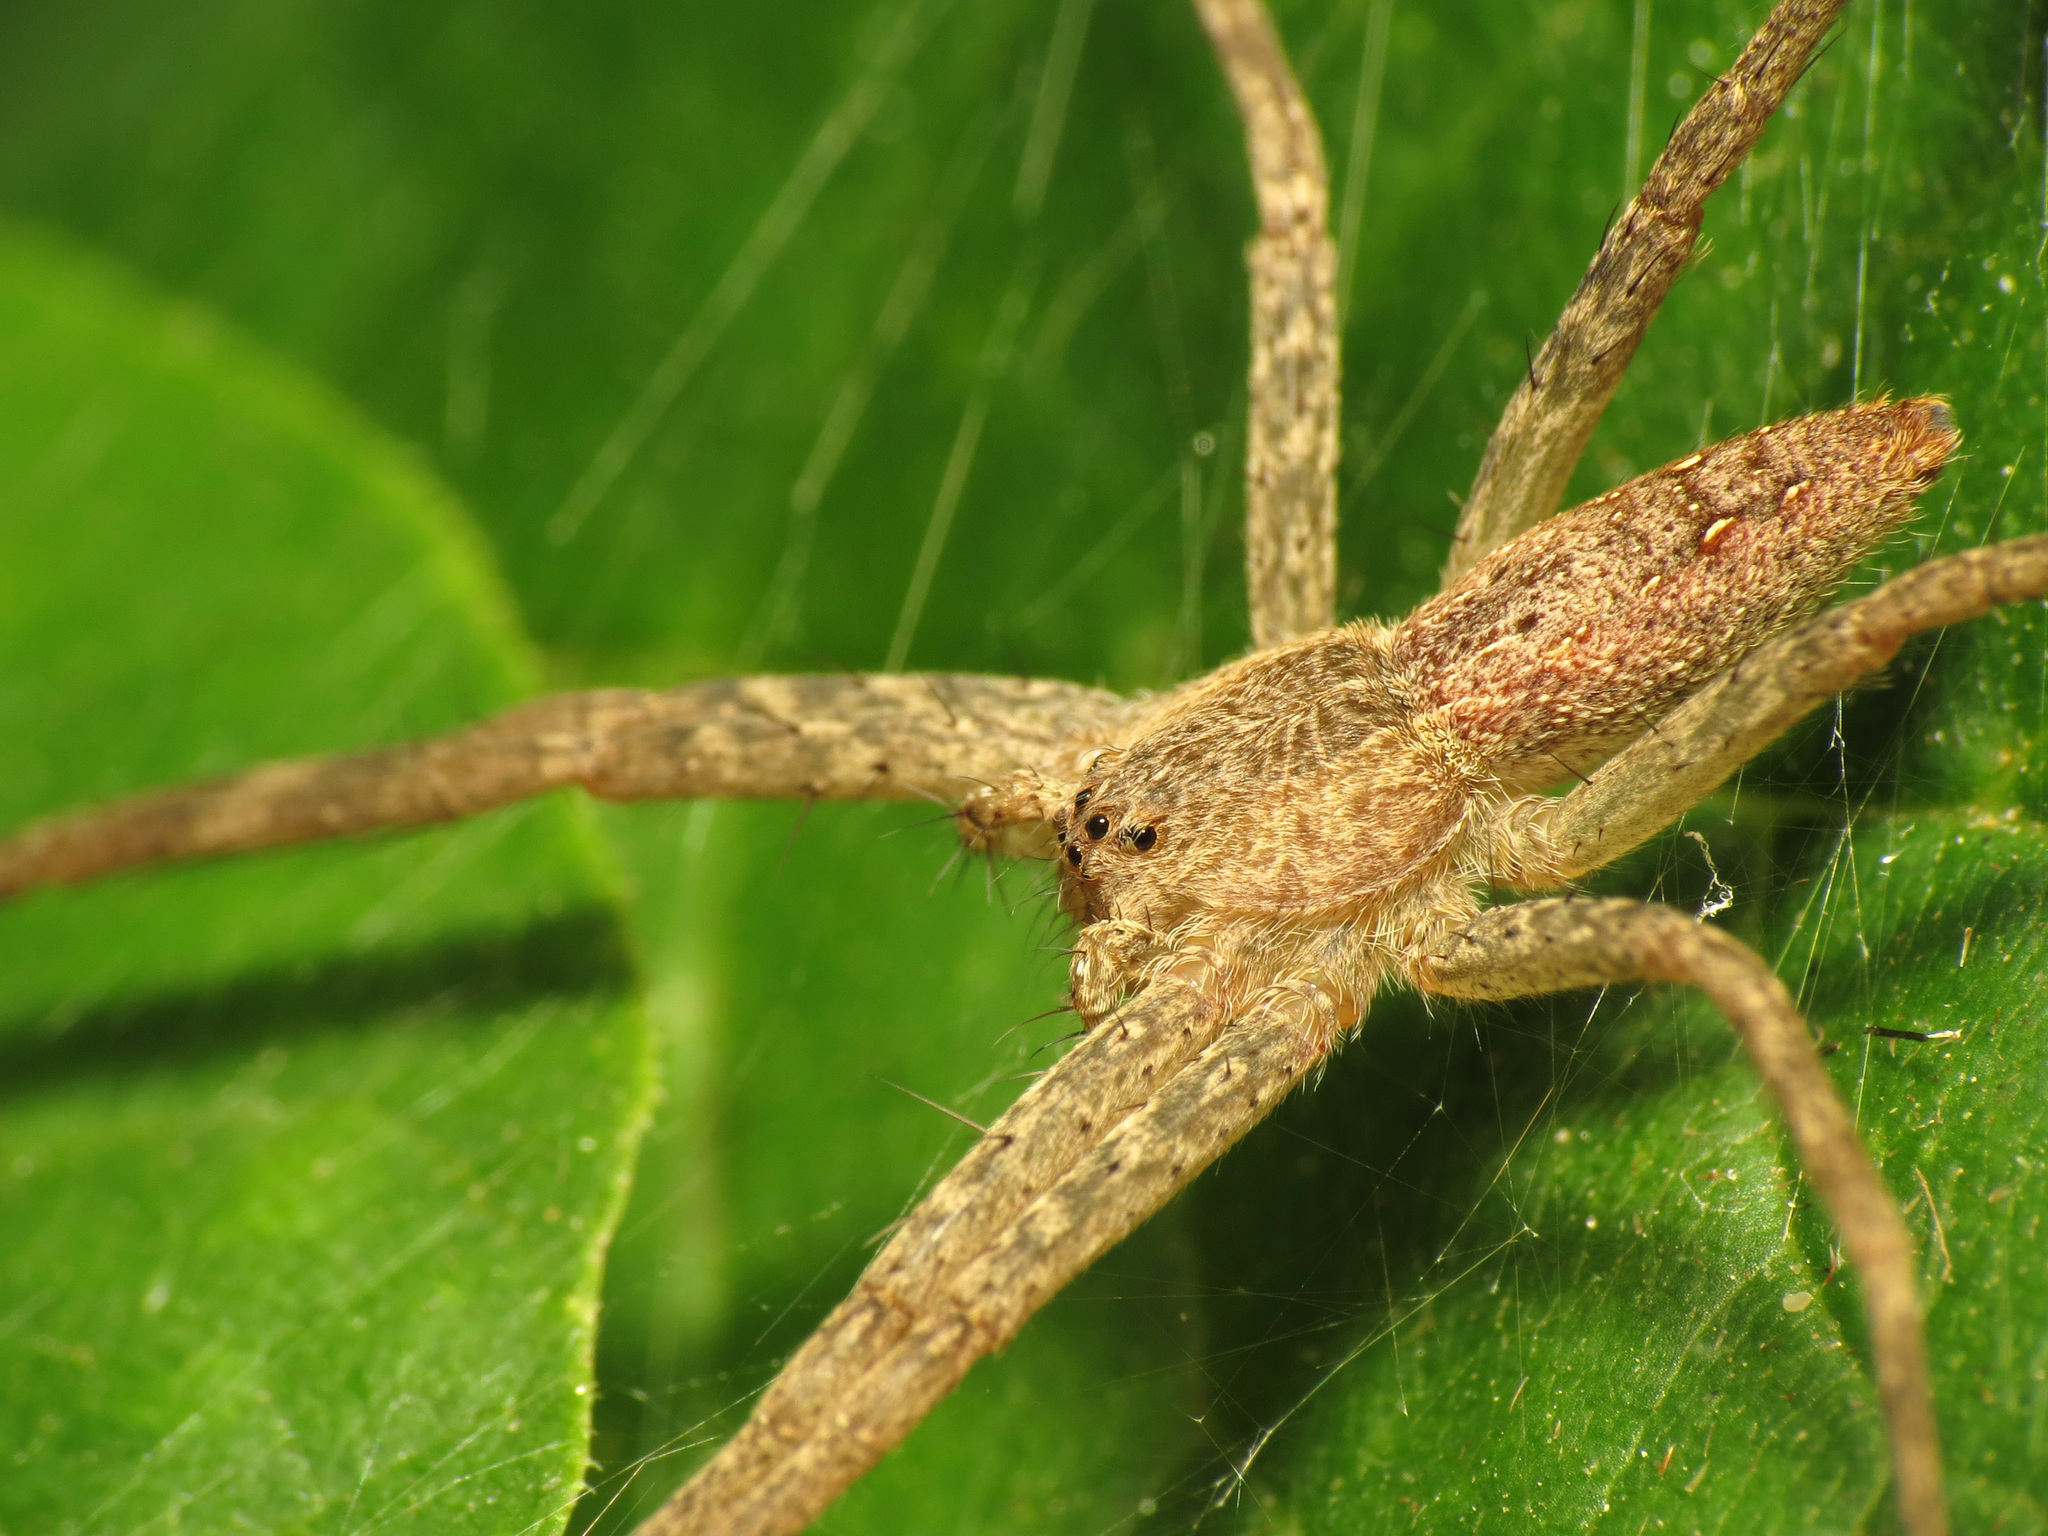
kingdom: Animalia
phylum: Arthropoda
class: Arachnida
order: Araneae
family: Pisauridae
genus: Pisaurina
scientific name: Pisaurina mira
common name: American nursery web spider
